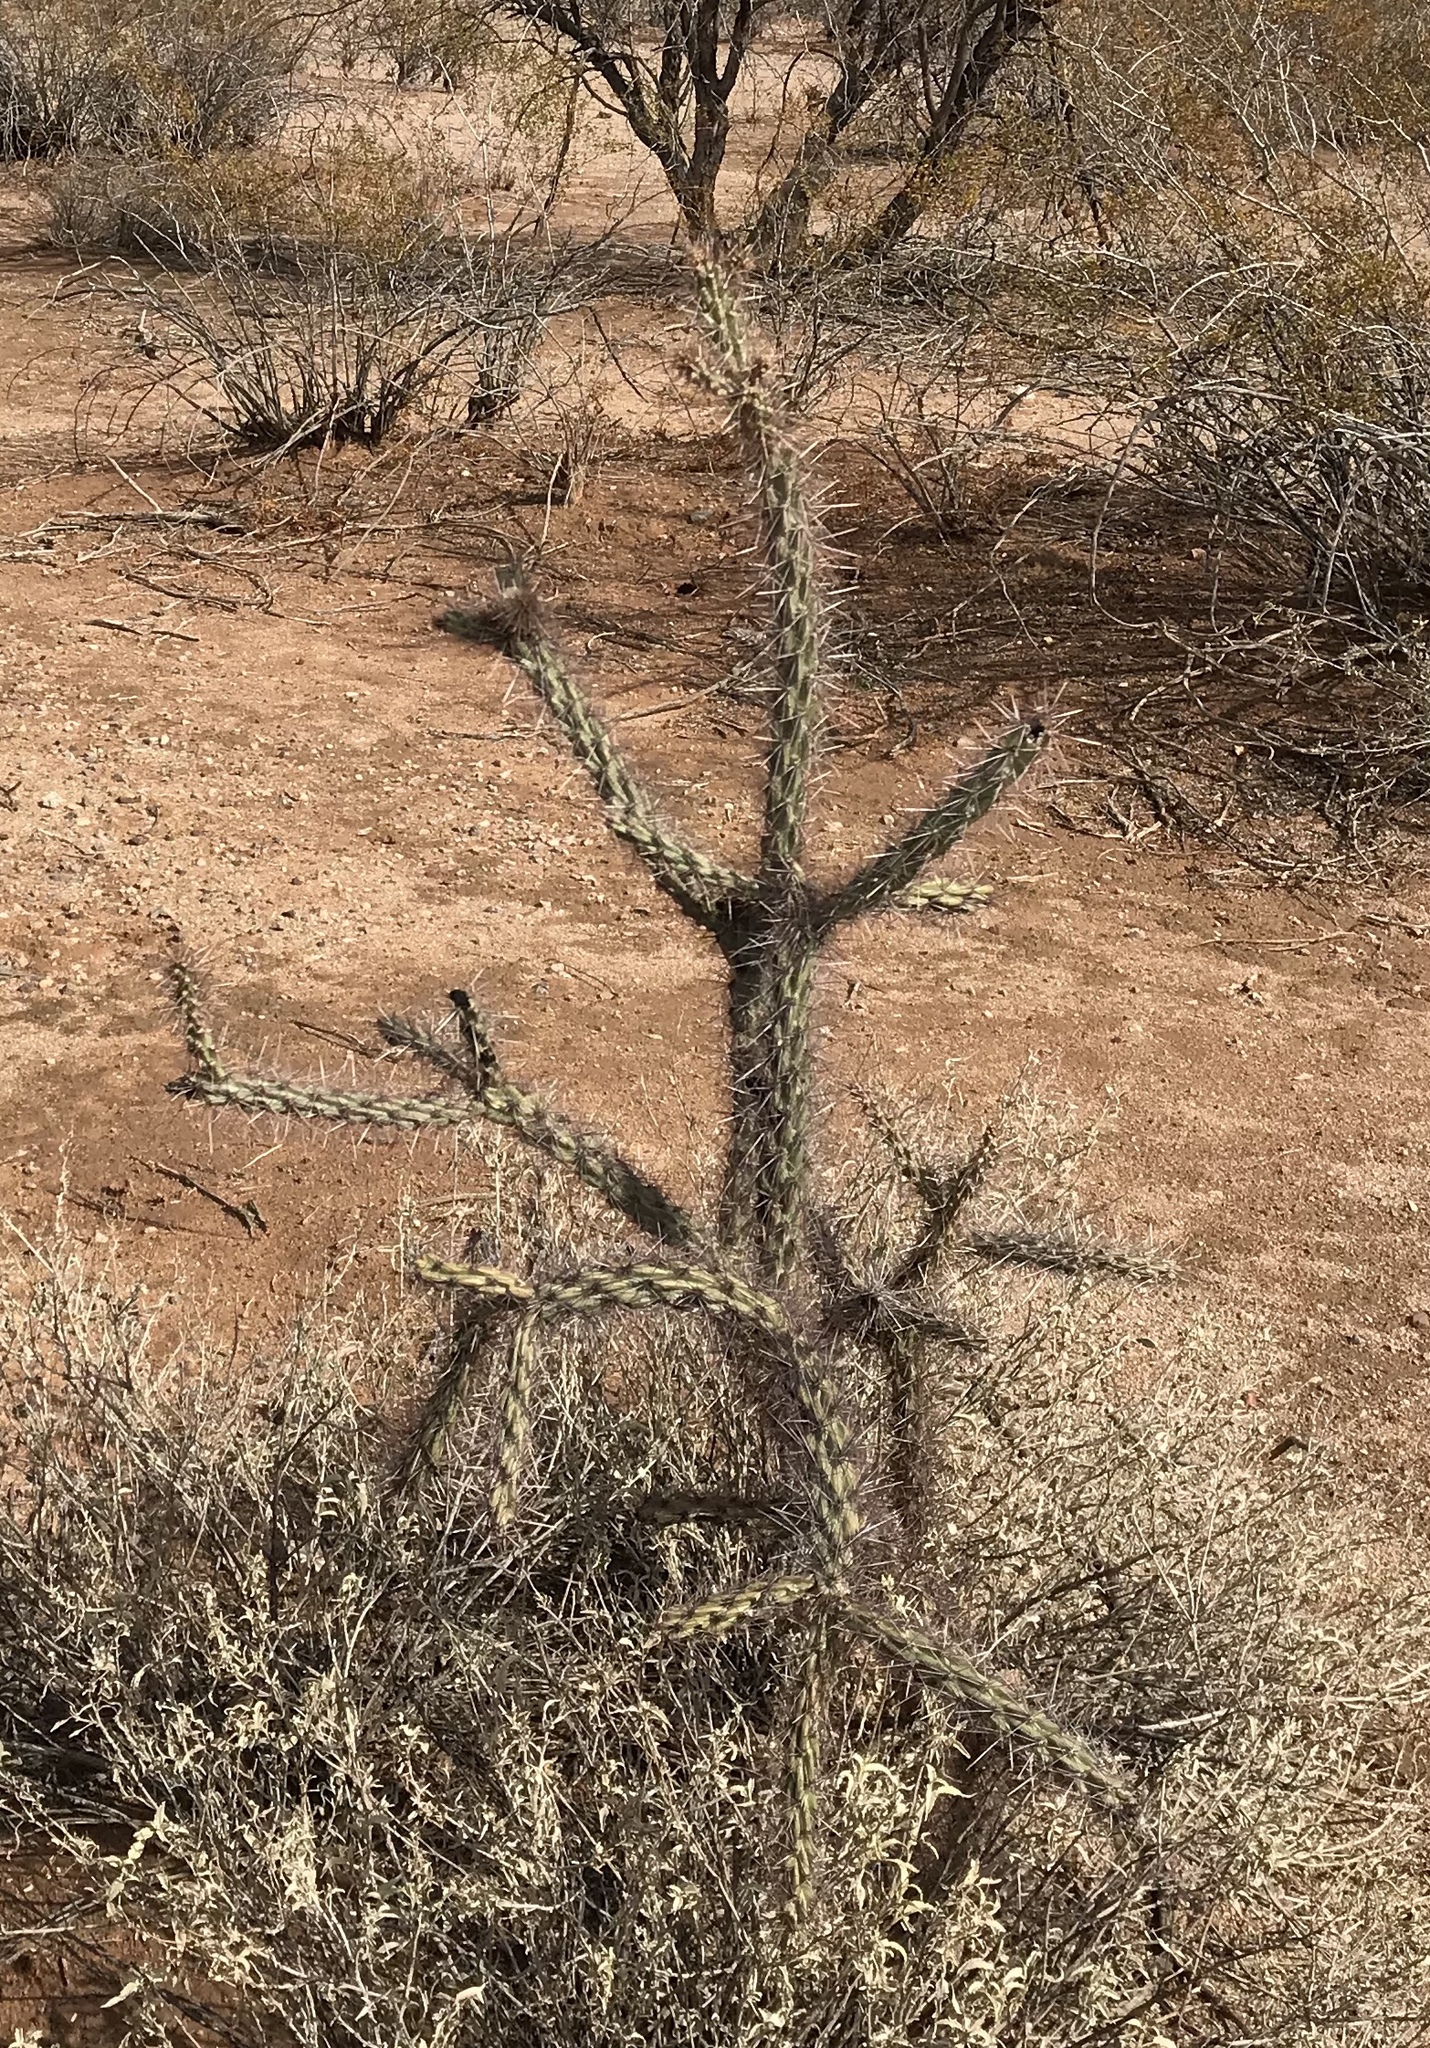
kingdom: Plantae
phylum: Tracheophyta
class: Magnoliopsida
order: Caryophyllales
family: Cactaceae
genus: Cylindropuntia
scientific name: Cylindropuntia thurberi
